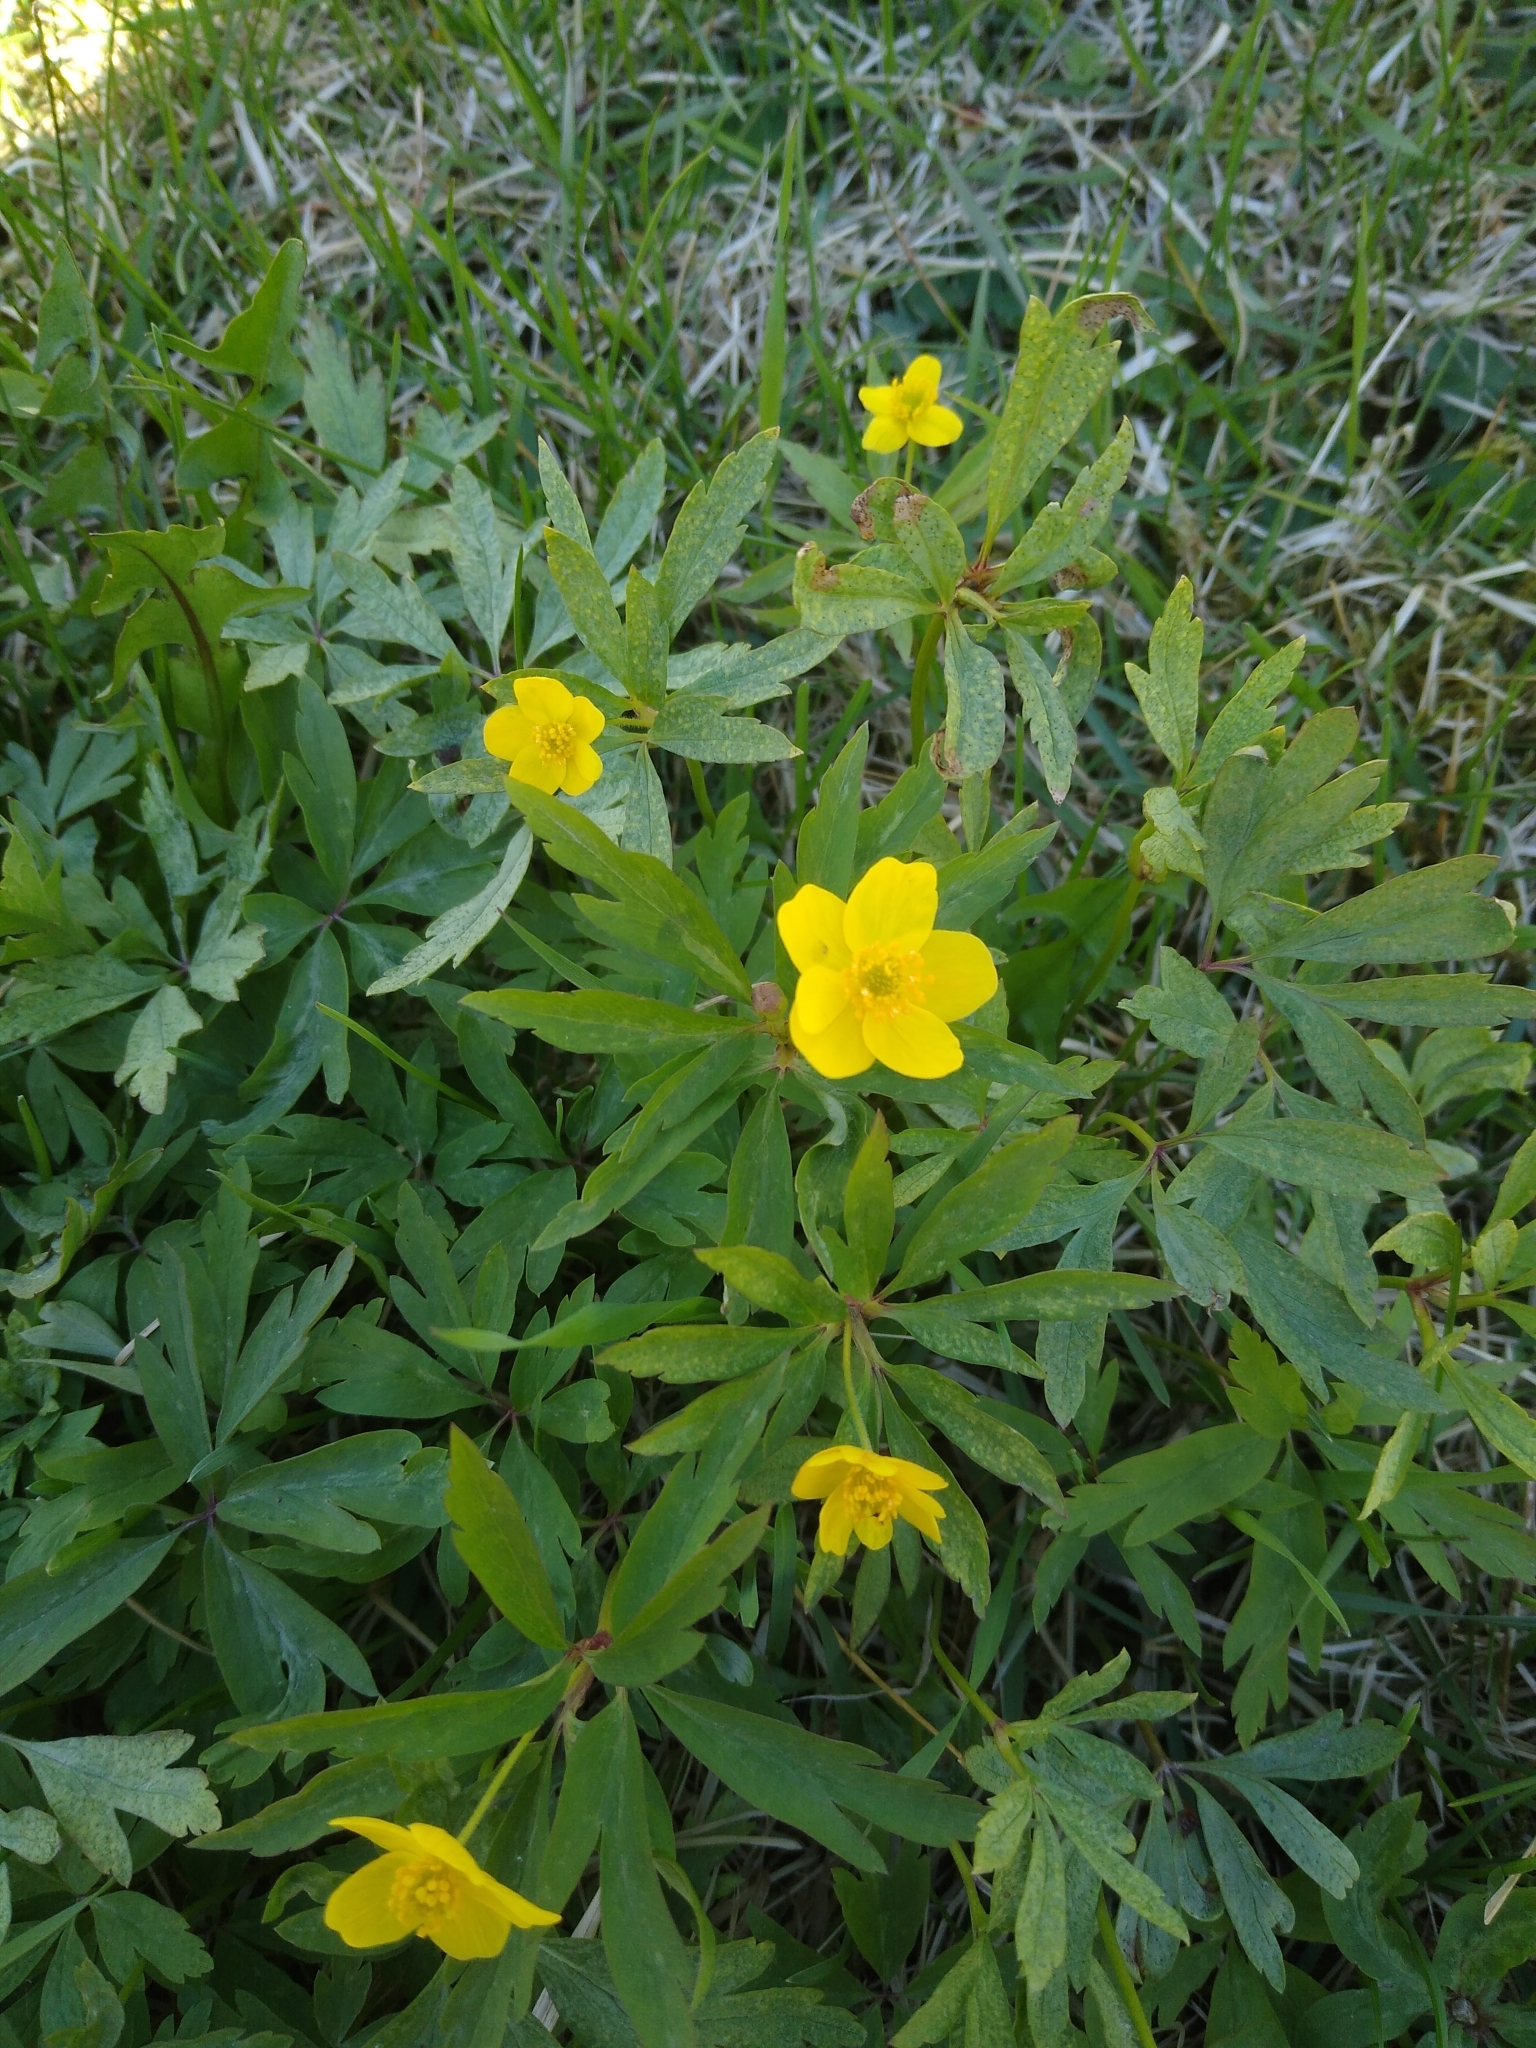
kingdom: Plantae
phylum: Tracheophyta
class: Magnoliopsida
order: Ranunculales
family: Ranunculaceae
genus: Anemone
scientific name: Anemone ranunculoides
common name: Yellow anemone
